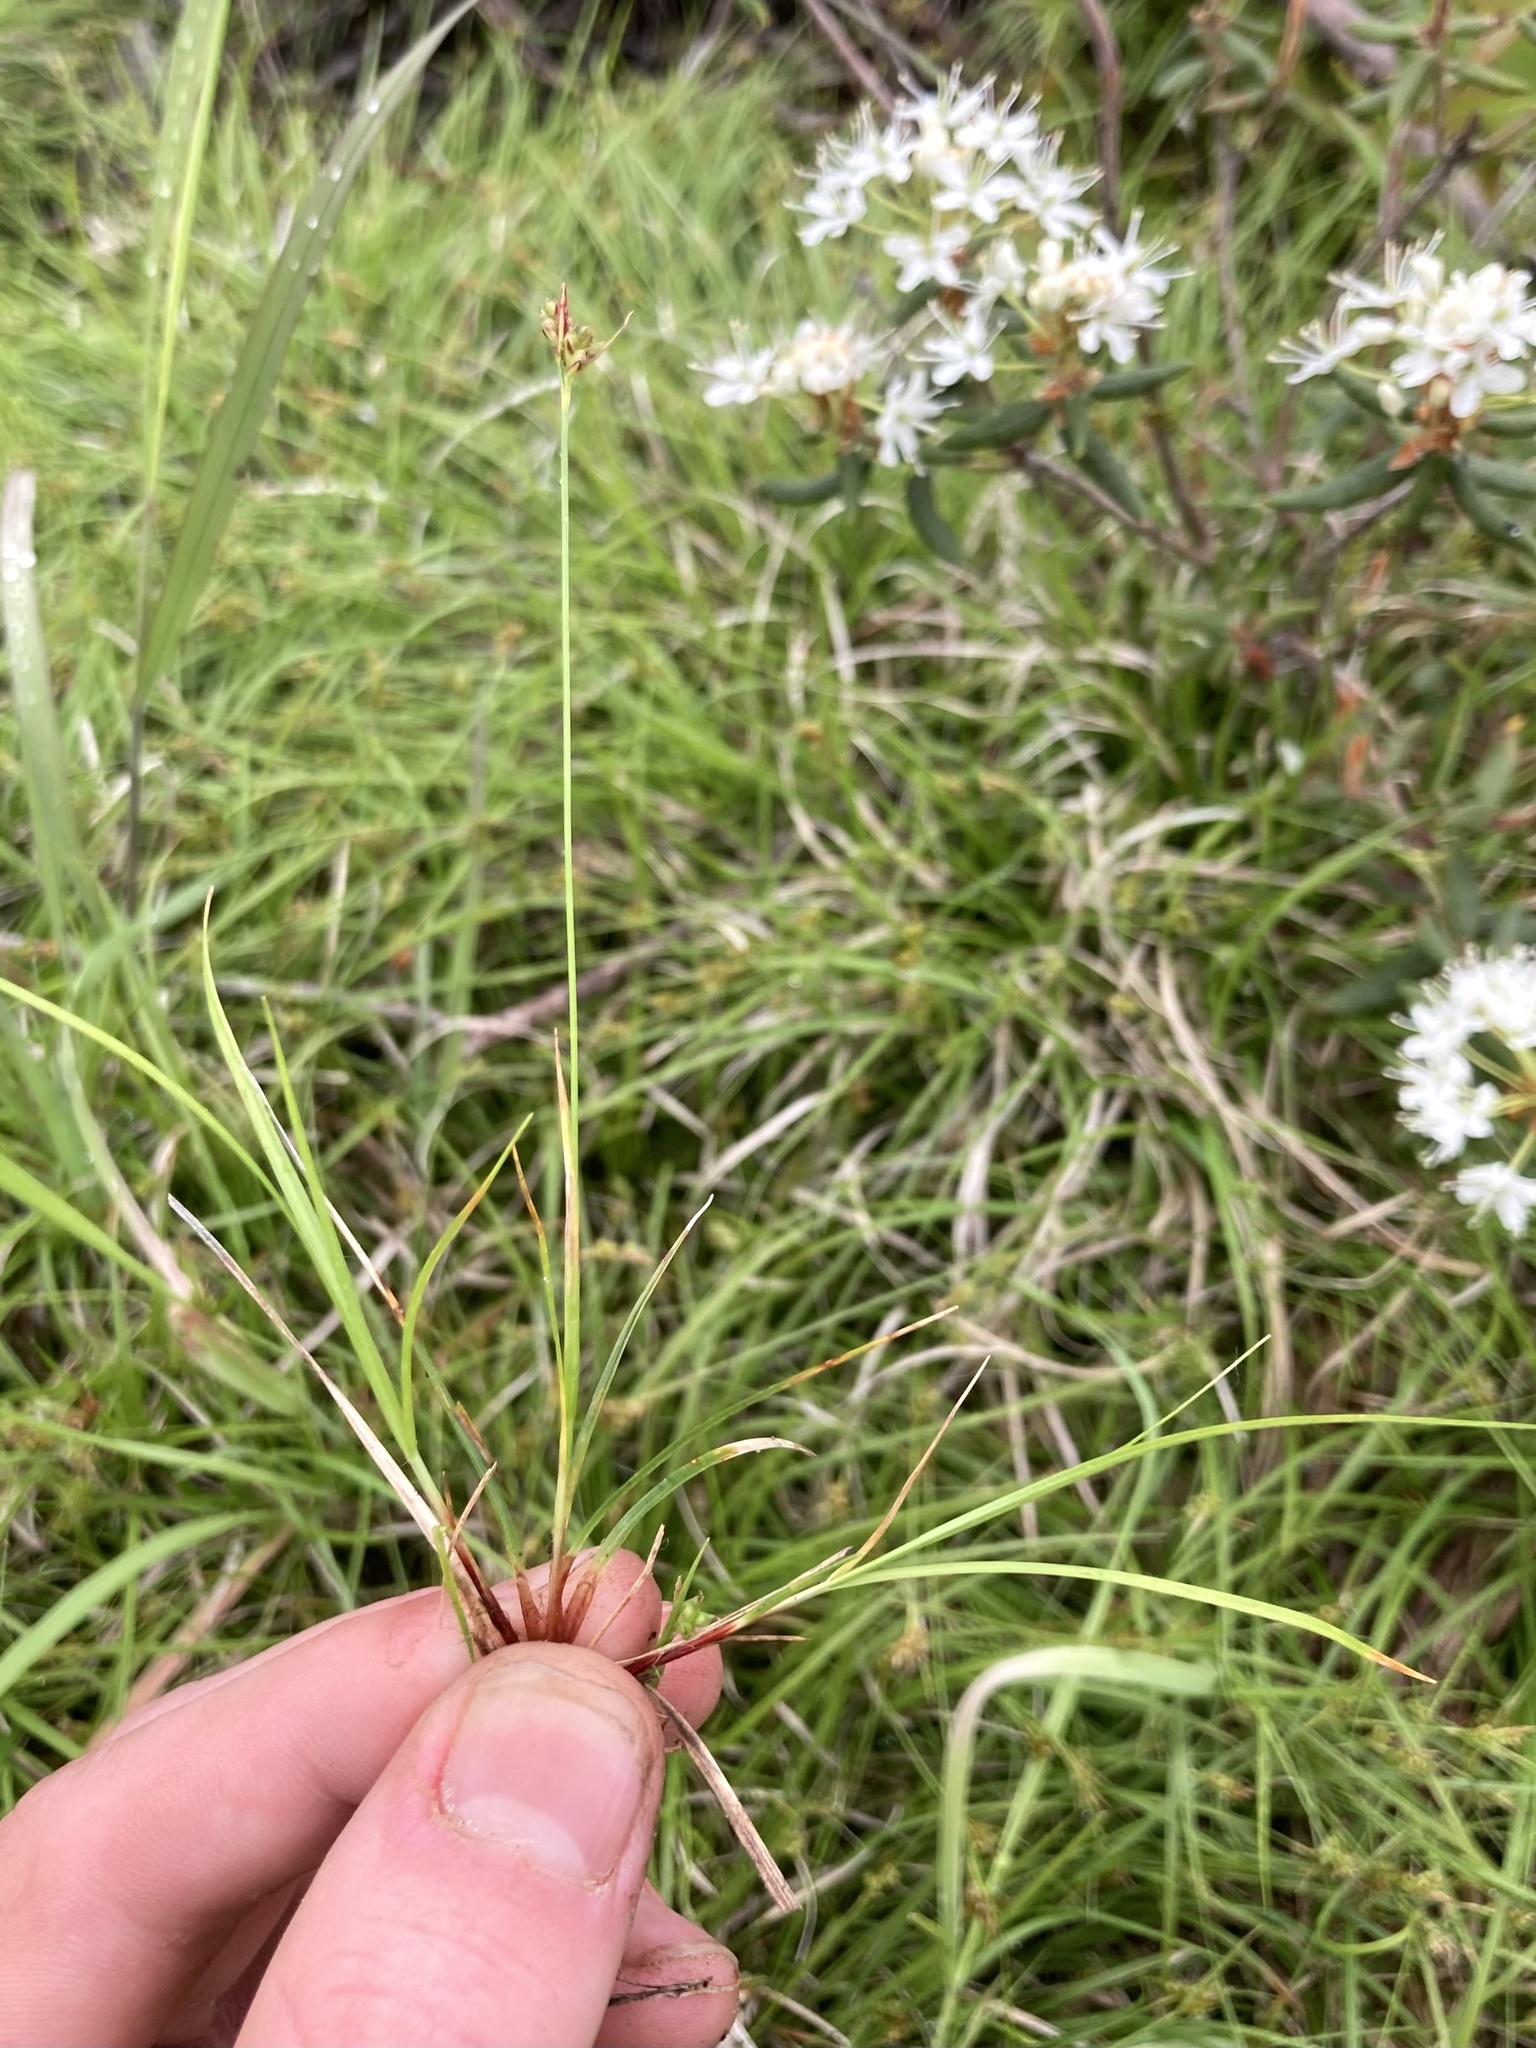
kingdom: Plantae
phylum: Tracheophyta
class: Liliopsida
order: Poales
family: Cyperaceae
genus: Carex
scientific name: Carex deflexa
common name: Bent northern sedge
